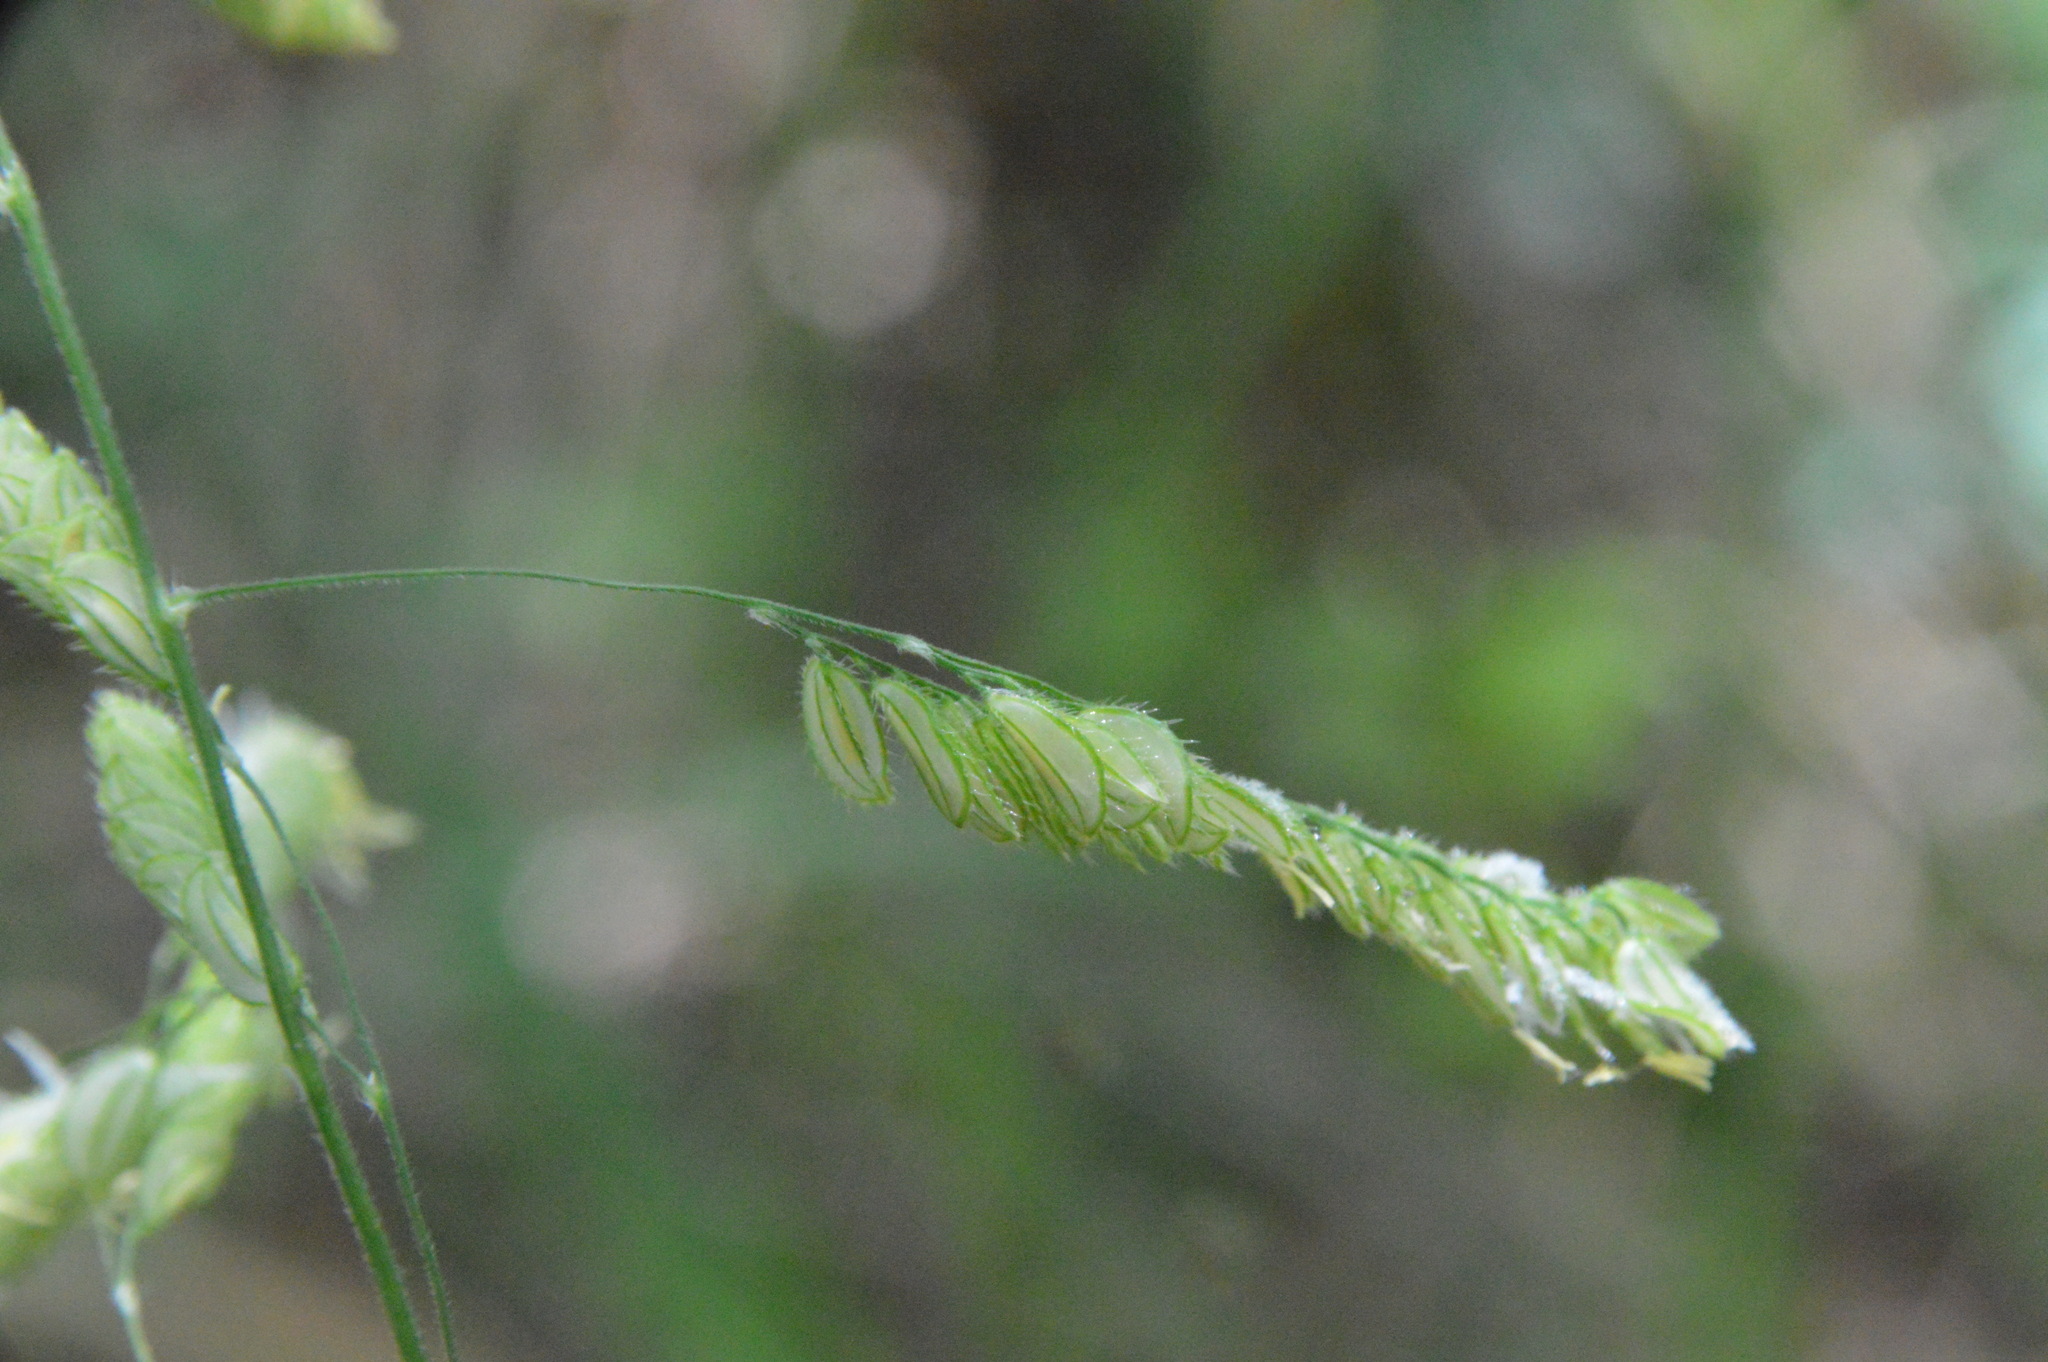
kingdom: Plantae
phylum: Tracheophyta
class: Liliopsida
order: Poales
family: Poaceae
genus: Leersia
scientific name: Leersia lenticularis
